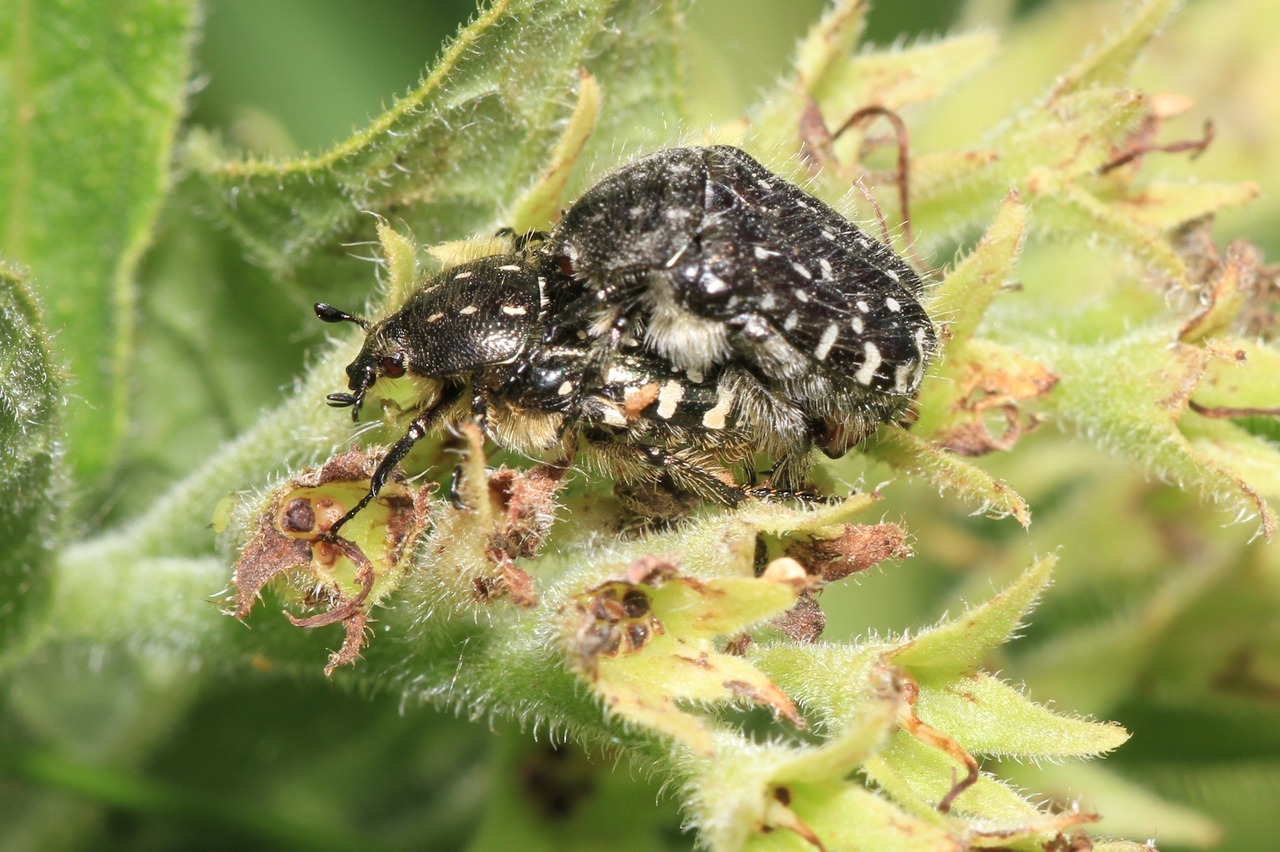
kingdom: Animalia
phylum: Arthropoda
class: Insecta
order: Coleoptera
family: Scarabaeidae
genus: Oxythyrea
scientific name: Oxythyrea funesta
